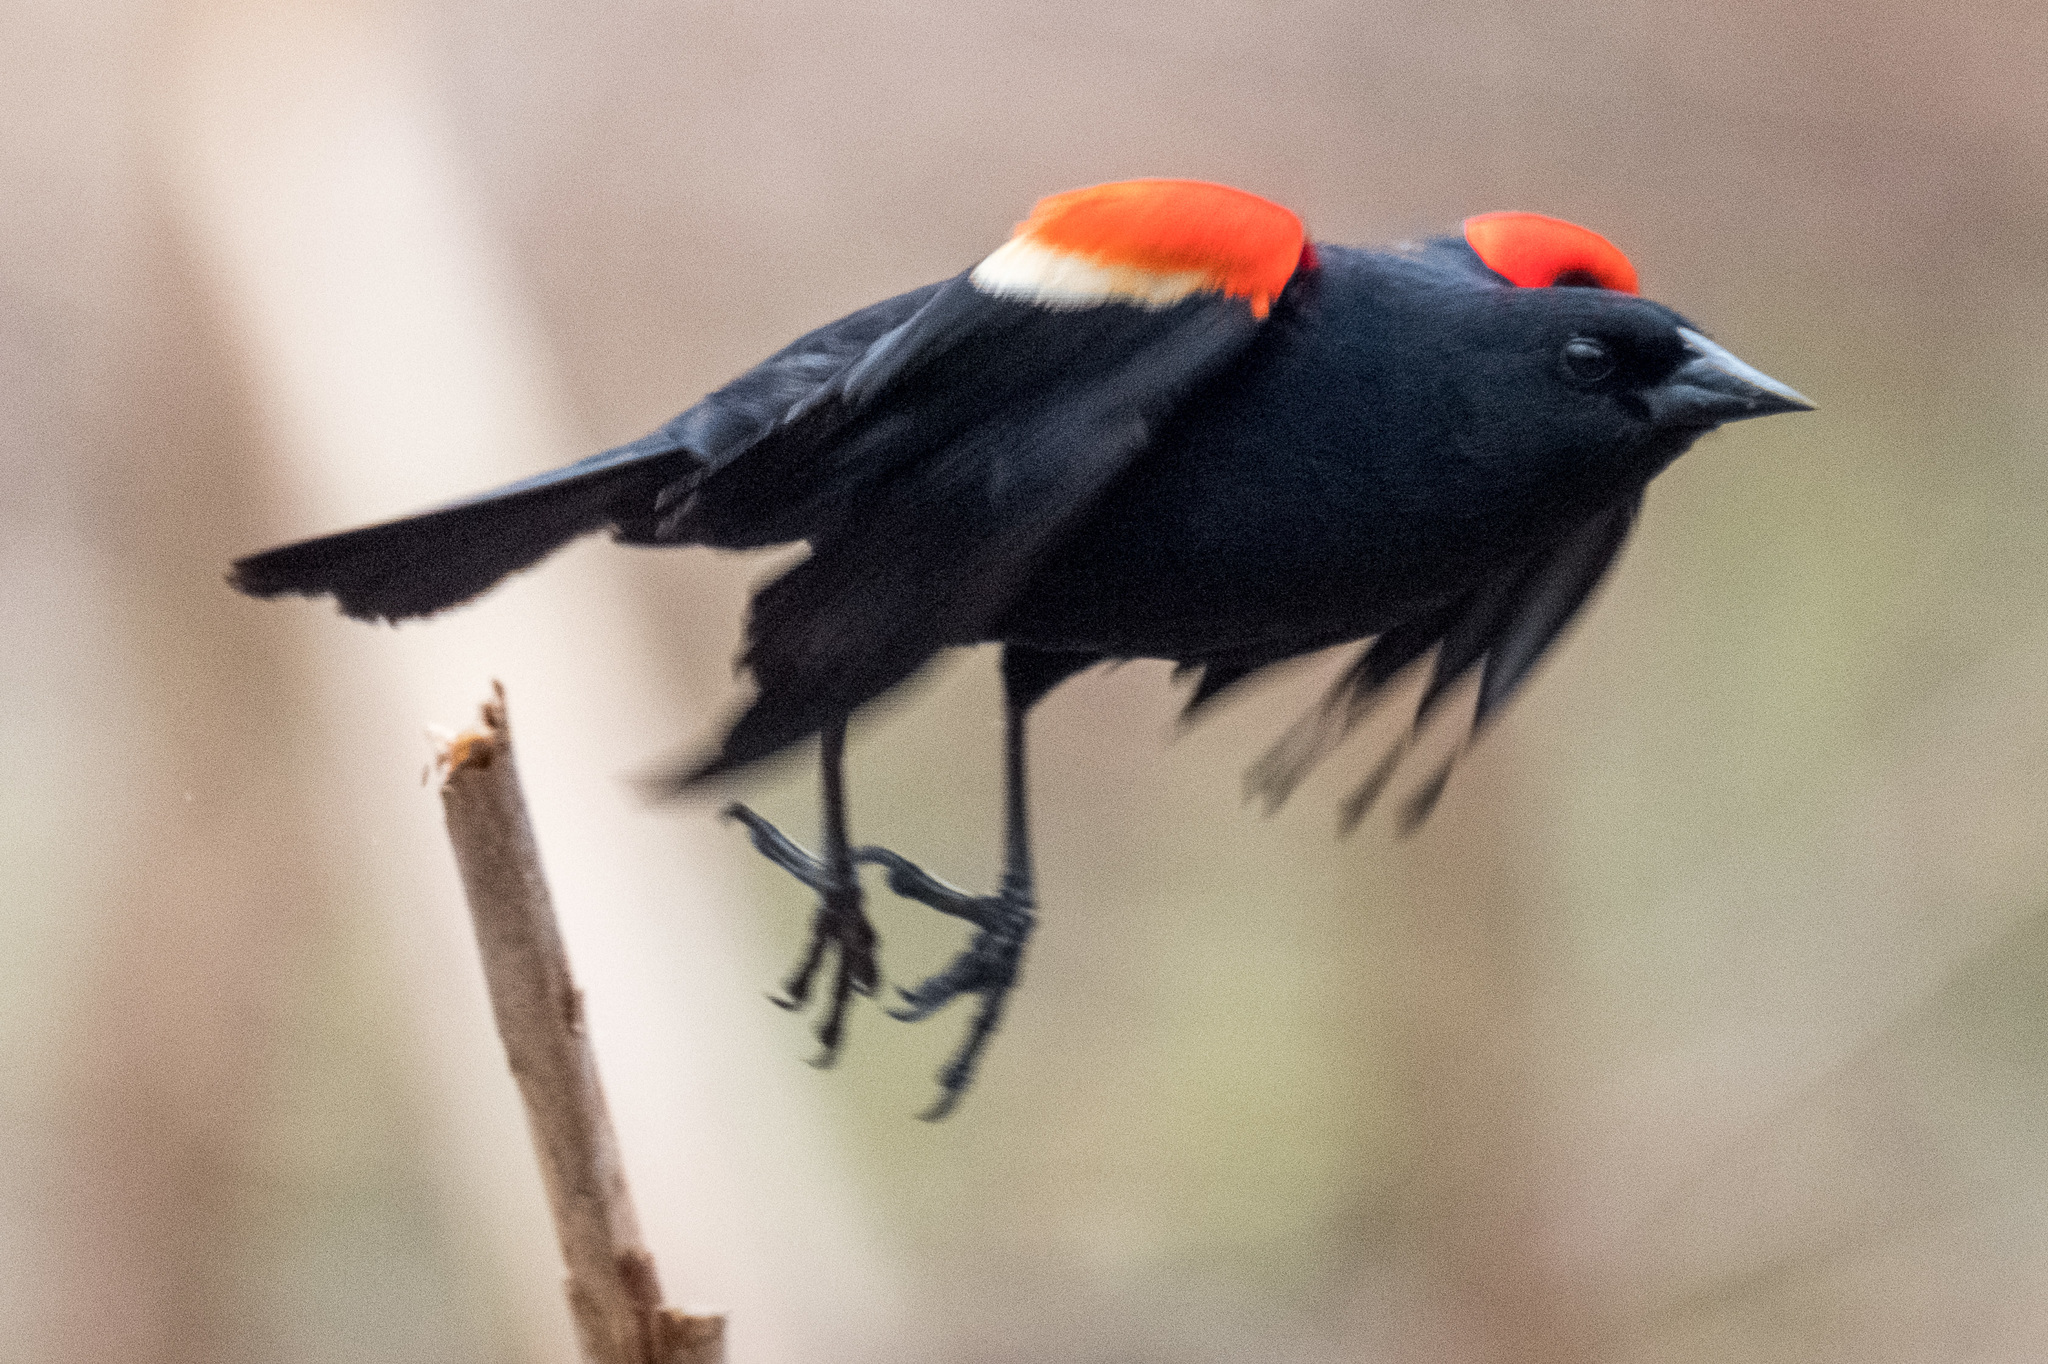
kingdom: Animalia
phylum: Chordata
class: Aves
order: Passeriformes
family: Icteridae
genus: Agelaius
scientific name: Agelaius phoeniceus
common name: Red-winged blackbird
